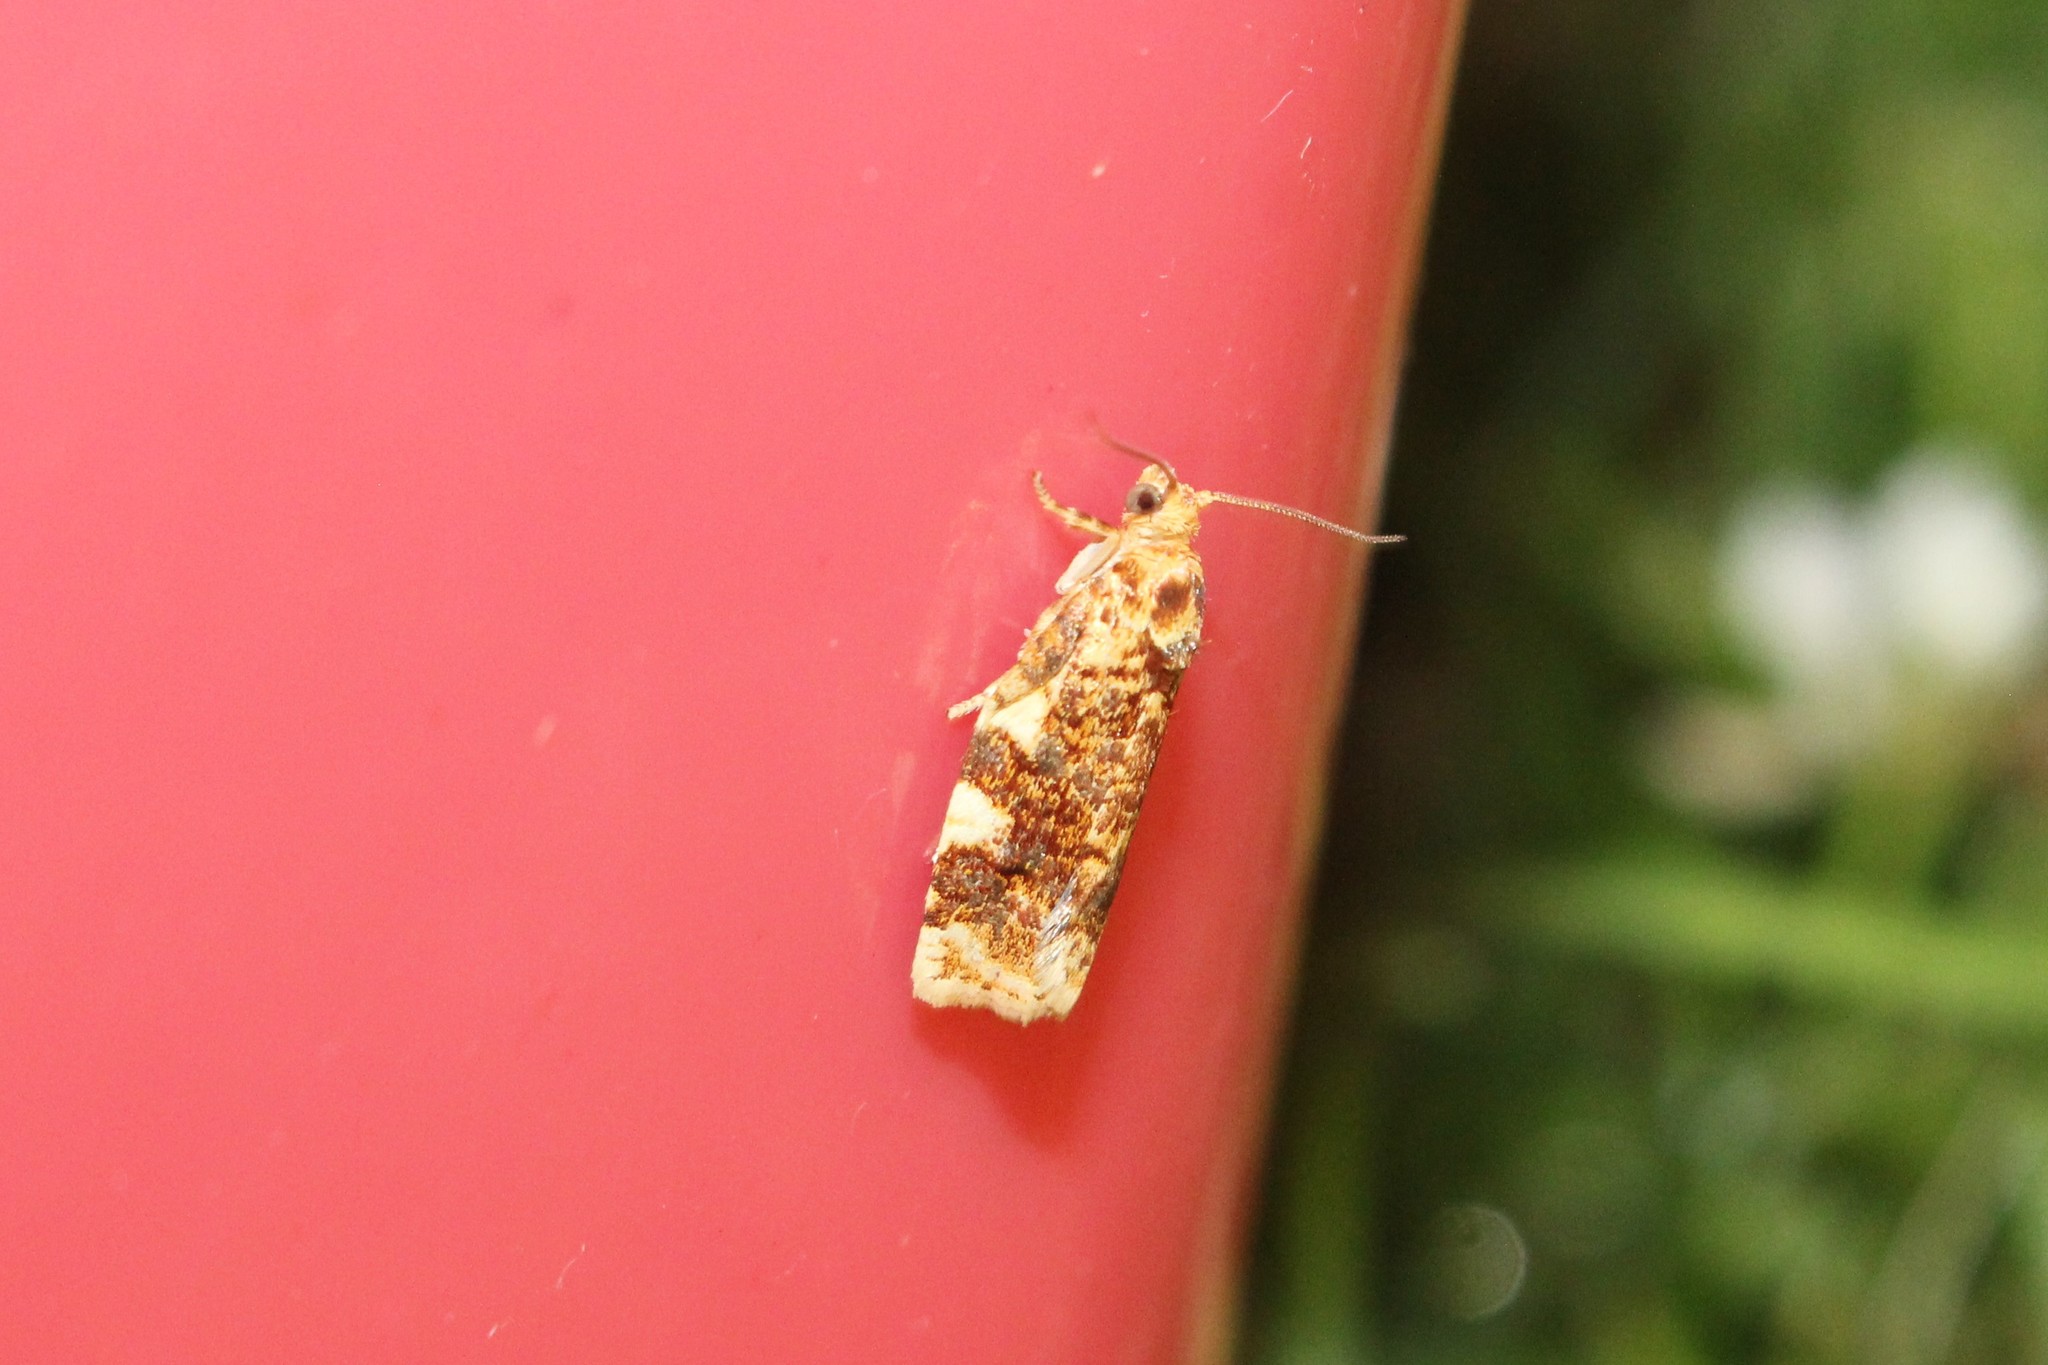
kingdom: Animalia
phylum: Arthropoda
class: Insecta
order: Lepidoptera
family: Tortricidae
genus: Archips
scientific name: Archips argyrospila
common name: Fruit-tree leafroller moth
